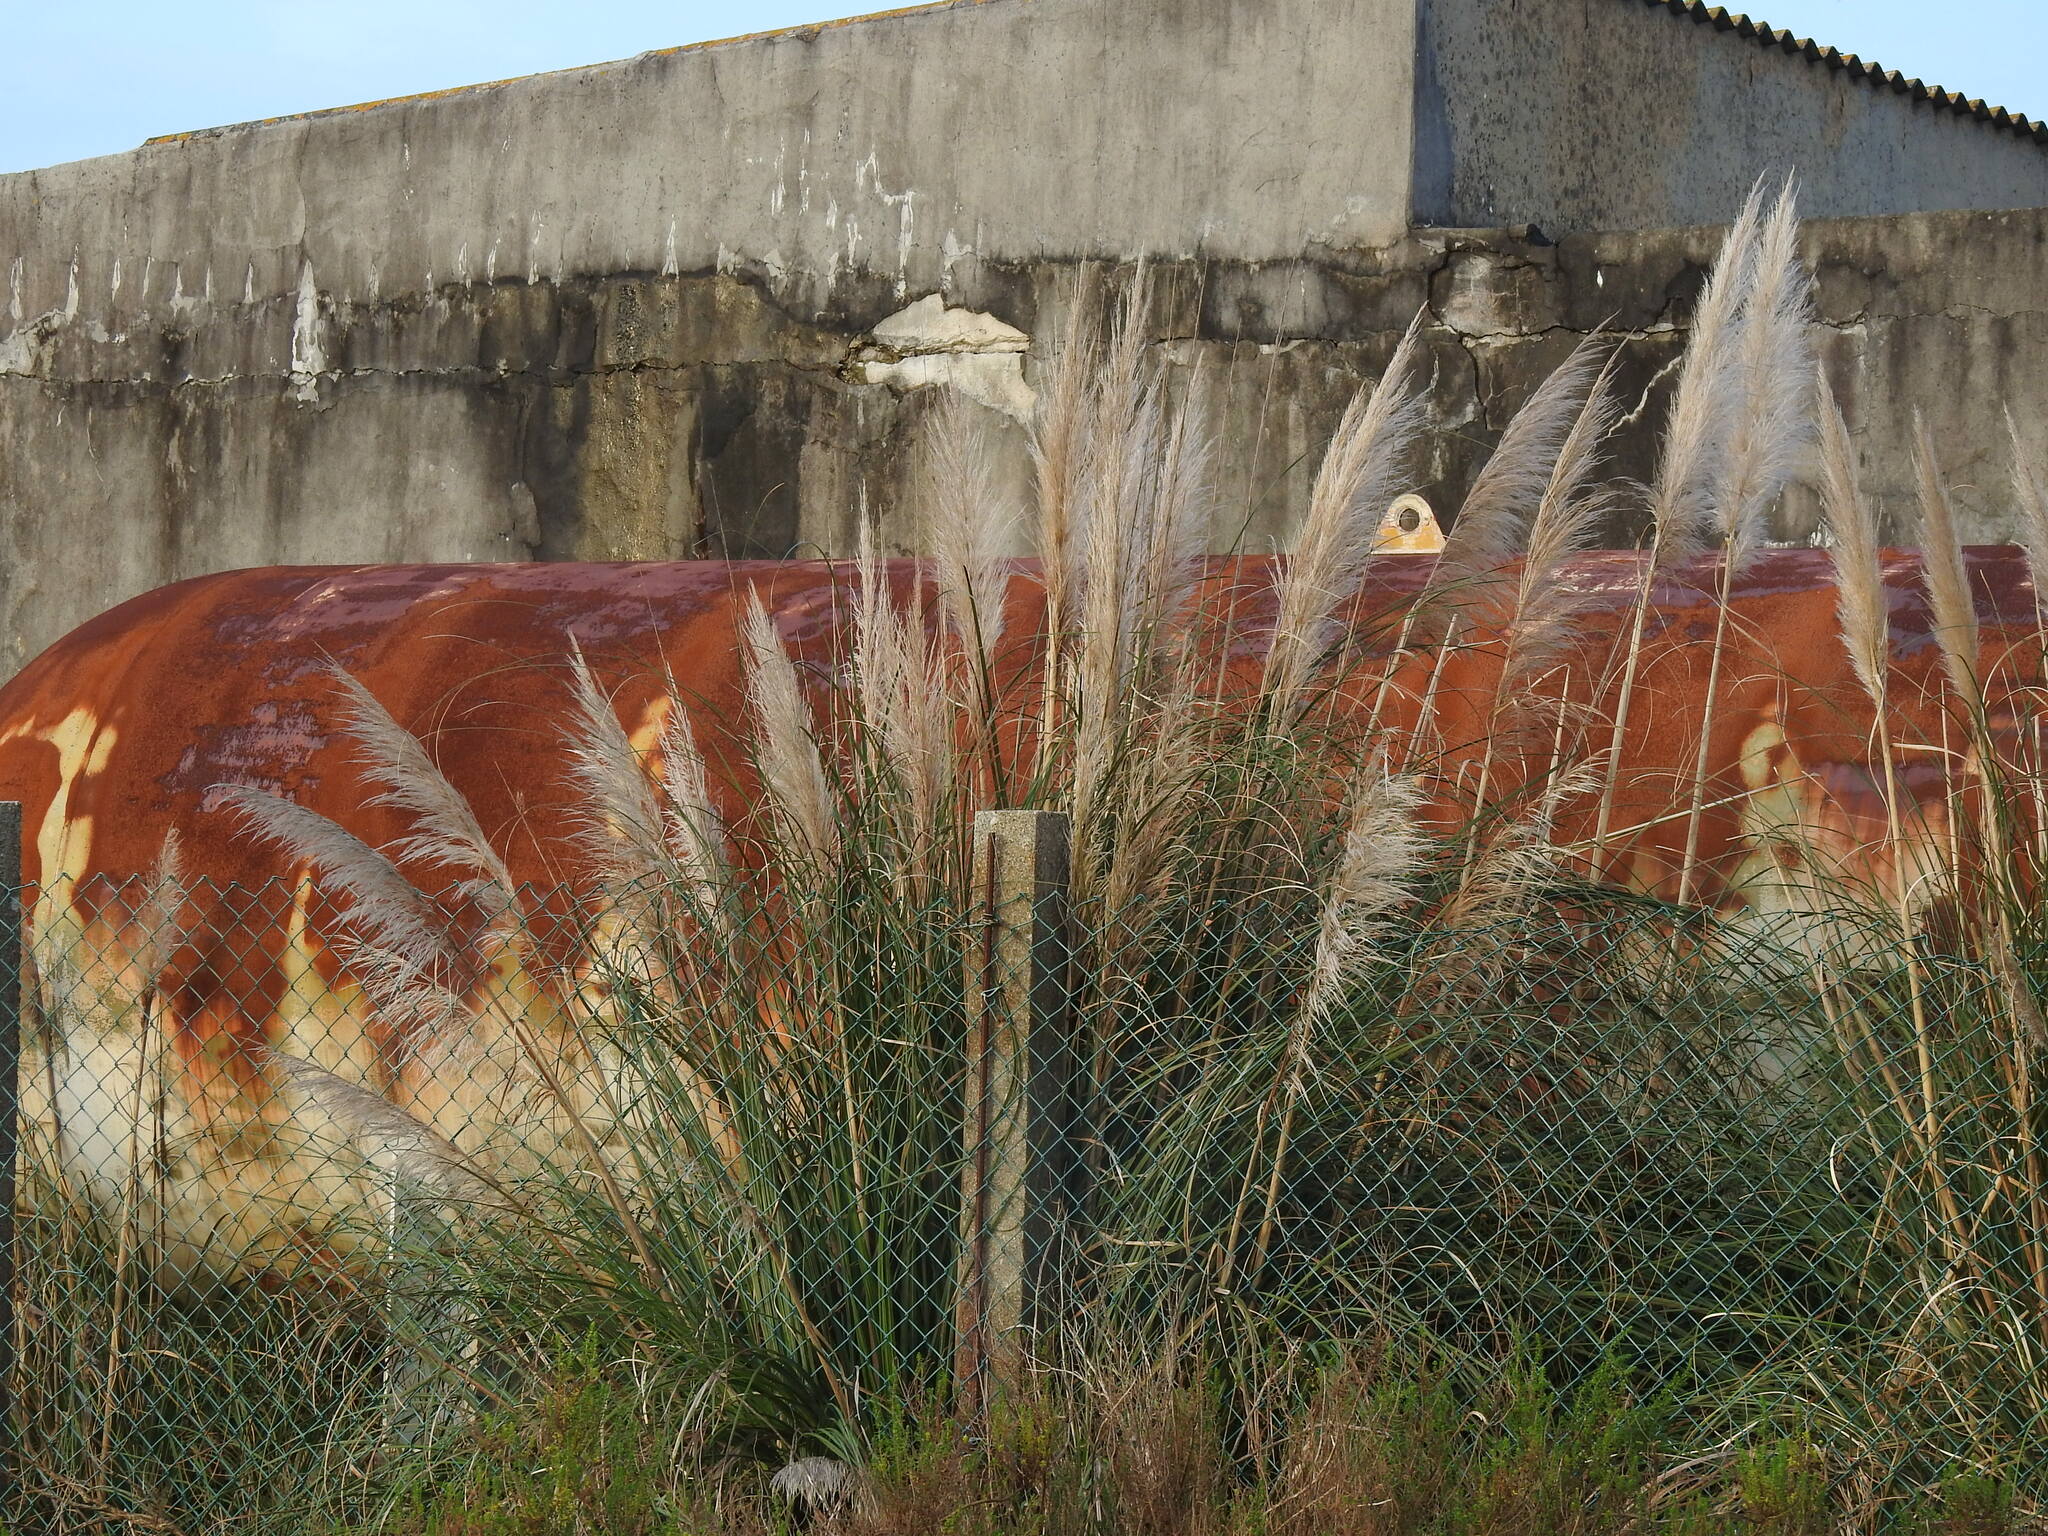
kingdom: Plantae
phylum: Tracheophyta
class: Liliopsida
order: Poales
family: Poaceae
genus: Cortaderia
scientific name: Cortaderia selloana
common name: Uruguayan pampas grass
